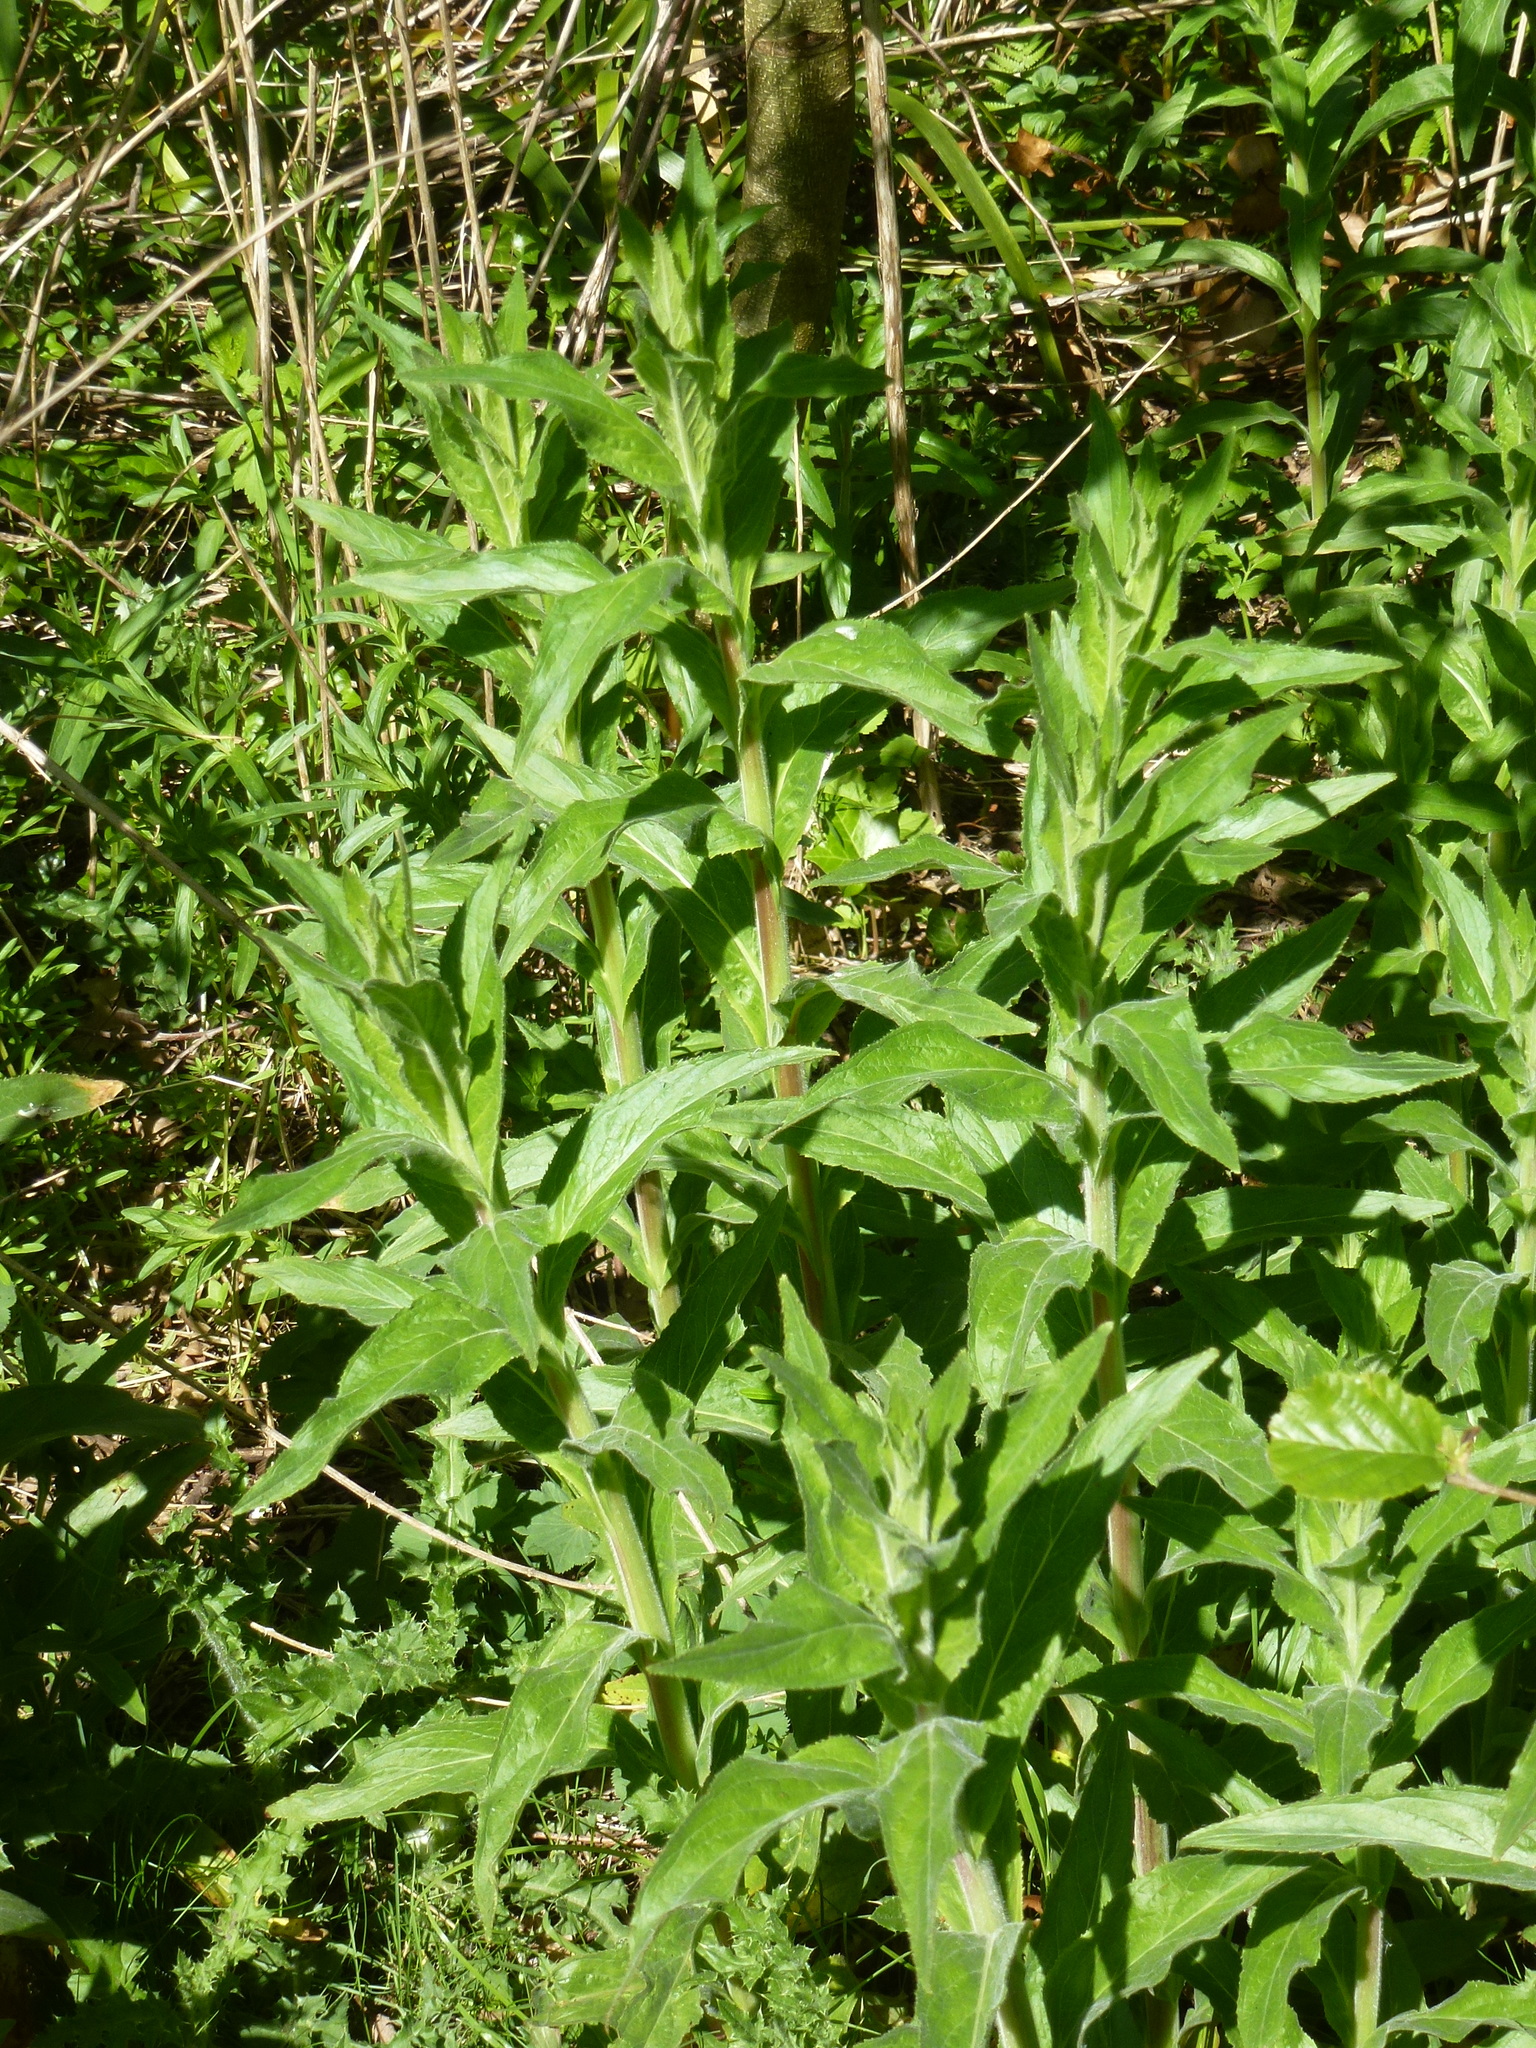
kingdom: Plantae
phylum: Tracheophyta
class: Magnoliopsida
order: Myrtales
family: Onagraceae
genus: Epilobium
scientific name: Epilobium hirsutum
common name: Great willowherb
